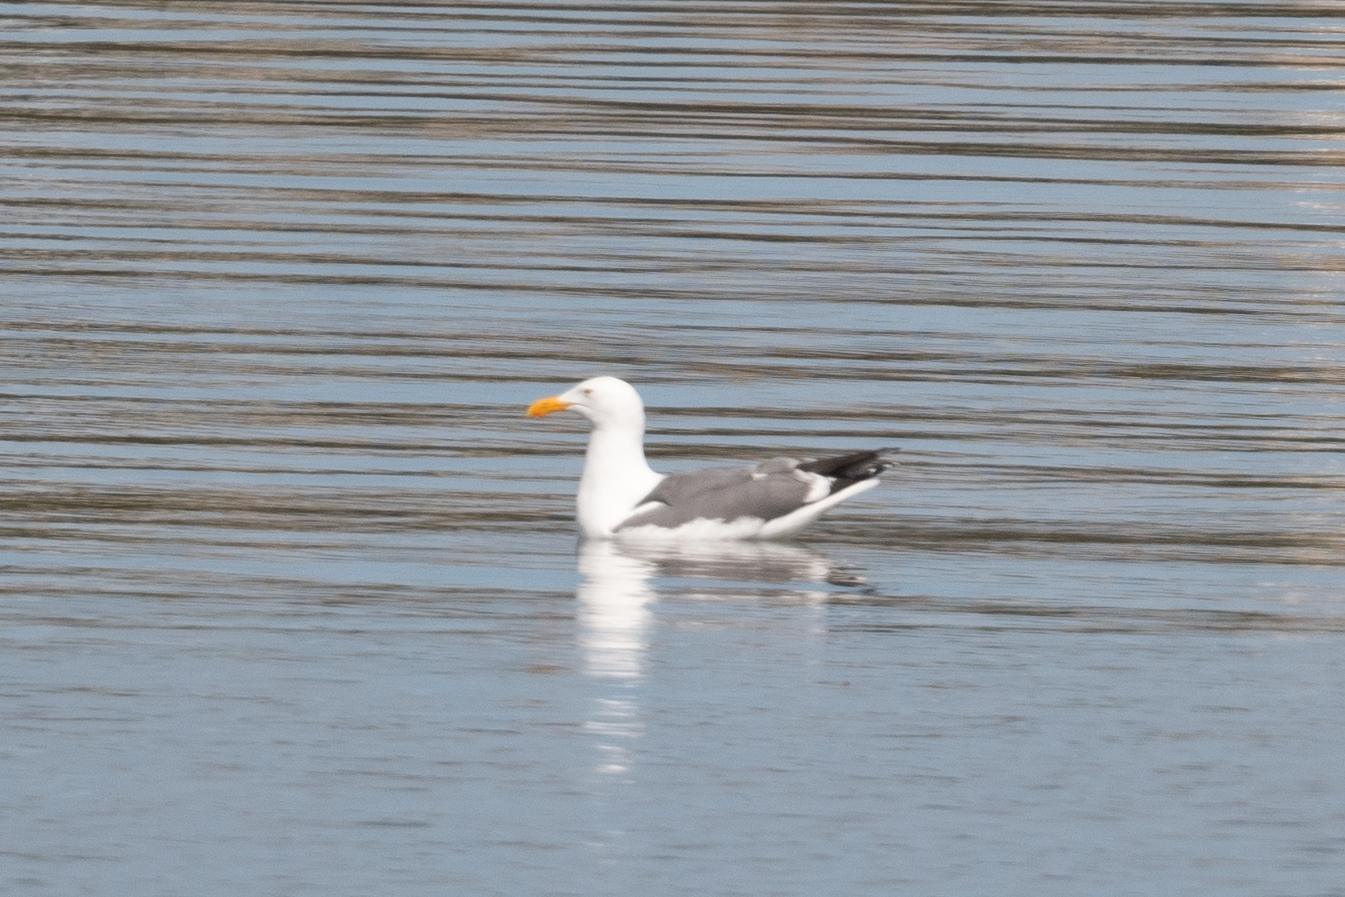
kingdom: Animalia
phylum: Chordata
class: Aves
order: Charadriiformes
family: Laridae
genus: Larus
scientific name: Larus occidentalis
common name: Western gull
